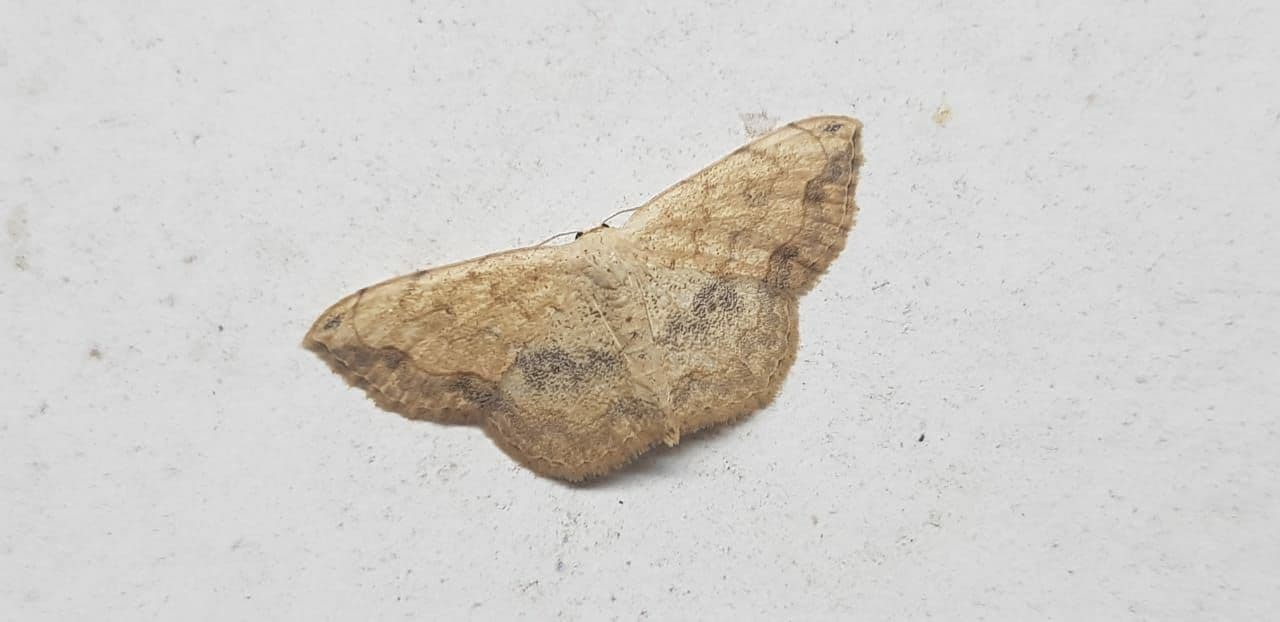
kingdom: Animalia
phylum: Arthropoda
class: Insecta
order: Lepidoptera
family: Geometridae
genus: Scopula
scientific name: Scopula addictaria
